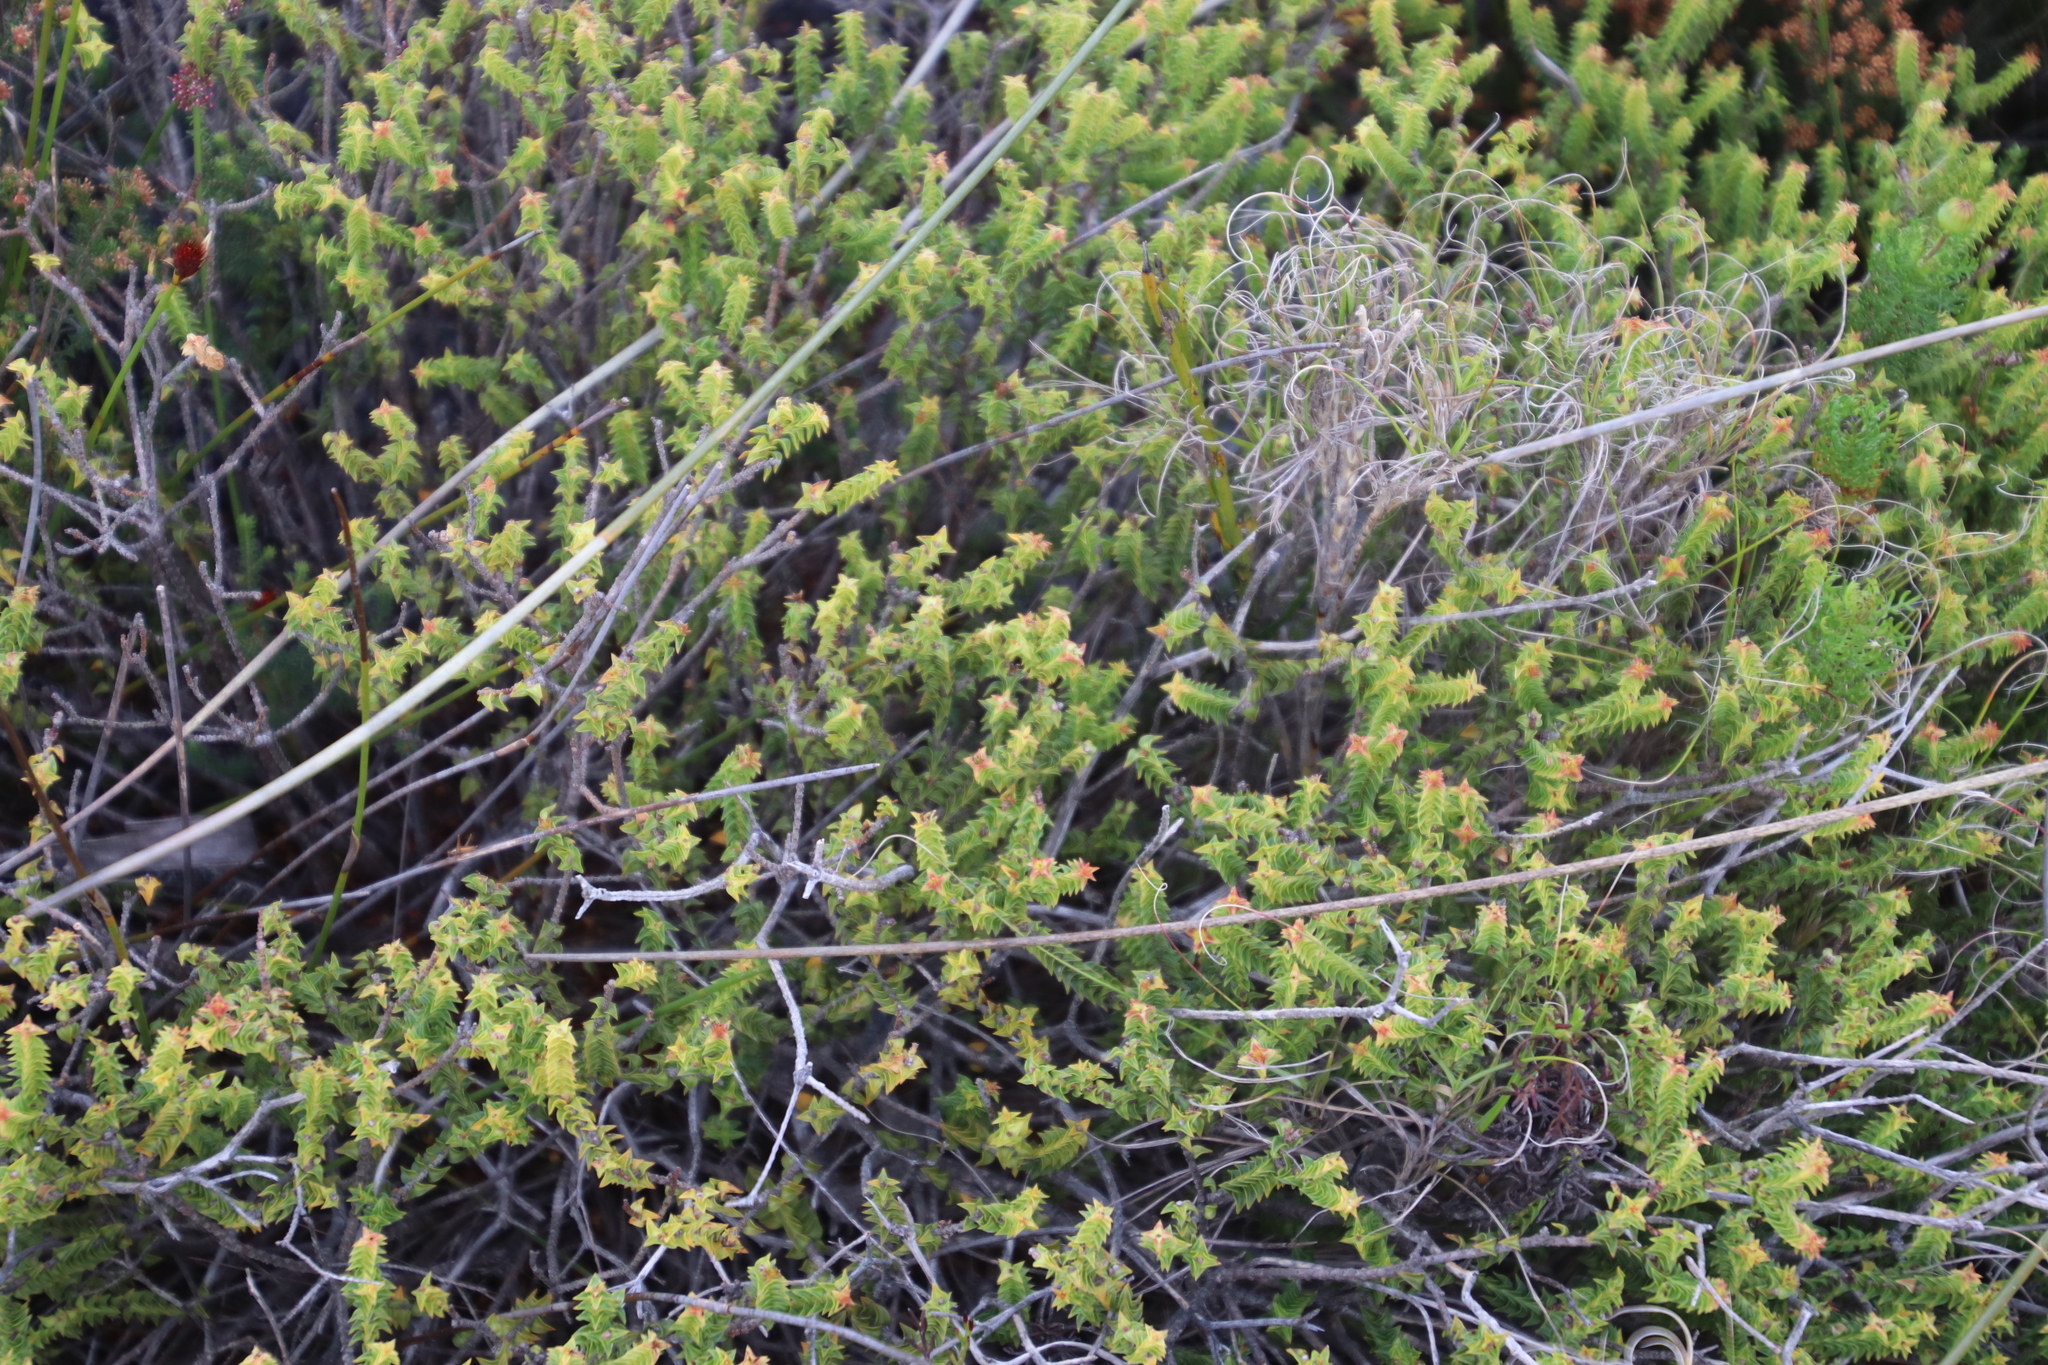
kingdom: Plantae
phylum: Tracheophyta
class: Magnoliopsida
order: Myrtales
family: Penaeaceae
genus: Penaea
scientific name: Penaea mucronata
